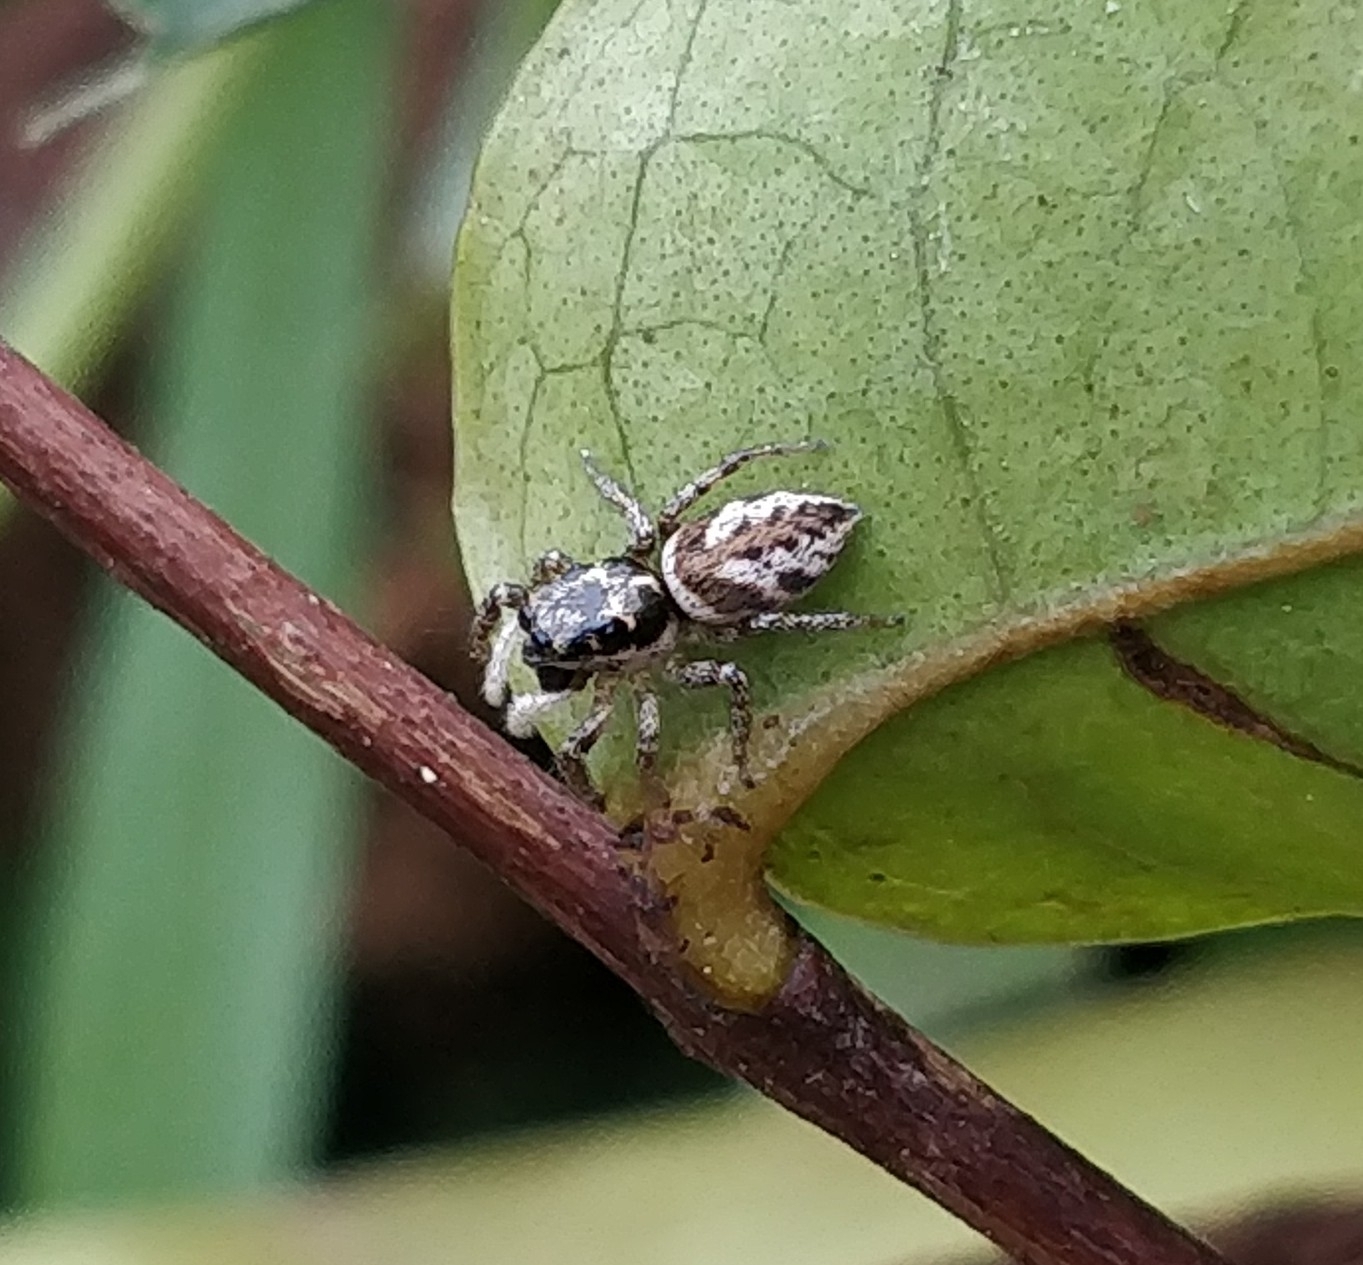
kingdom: Animalia
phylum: Arthropoda
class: Arachnida
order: Araneae
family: Salticidae
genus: Salticus
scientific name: Salticus gomerensis
